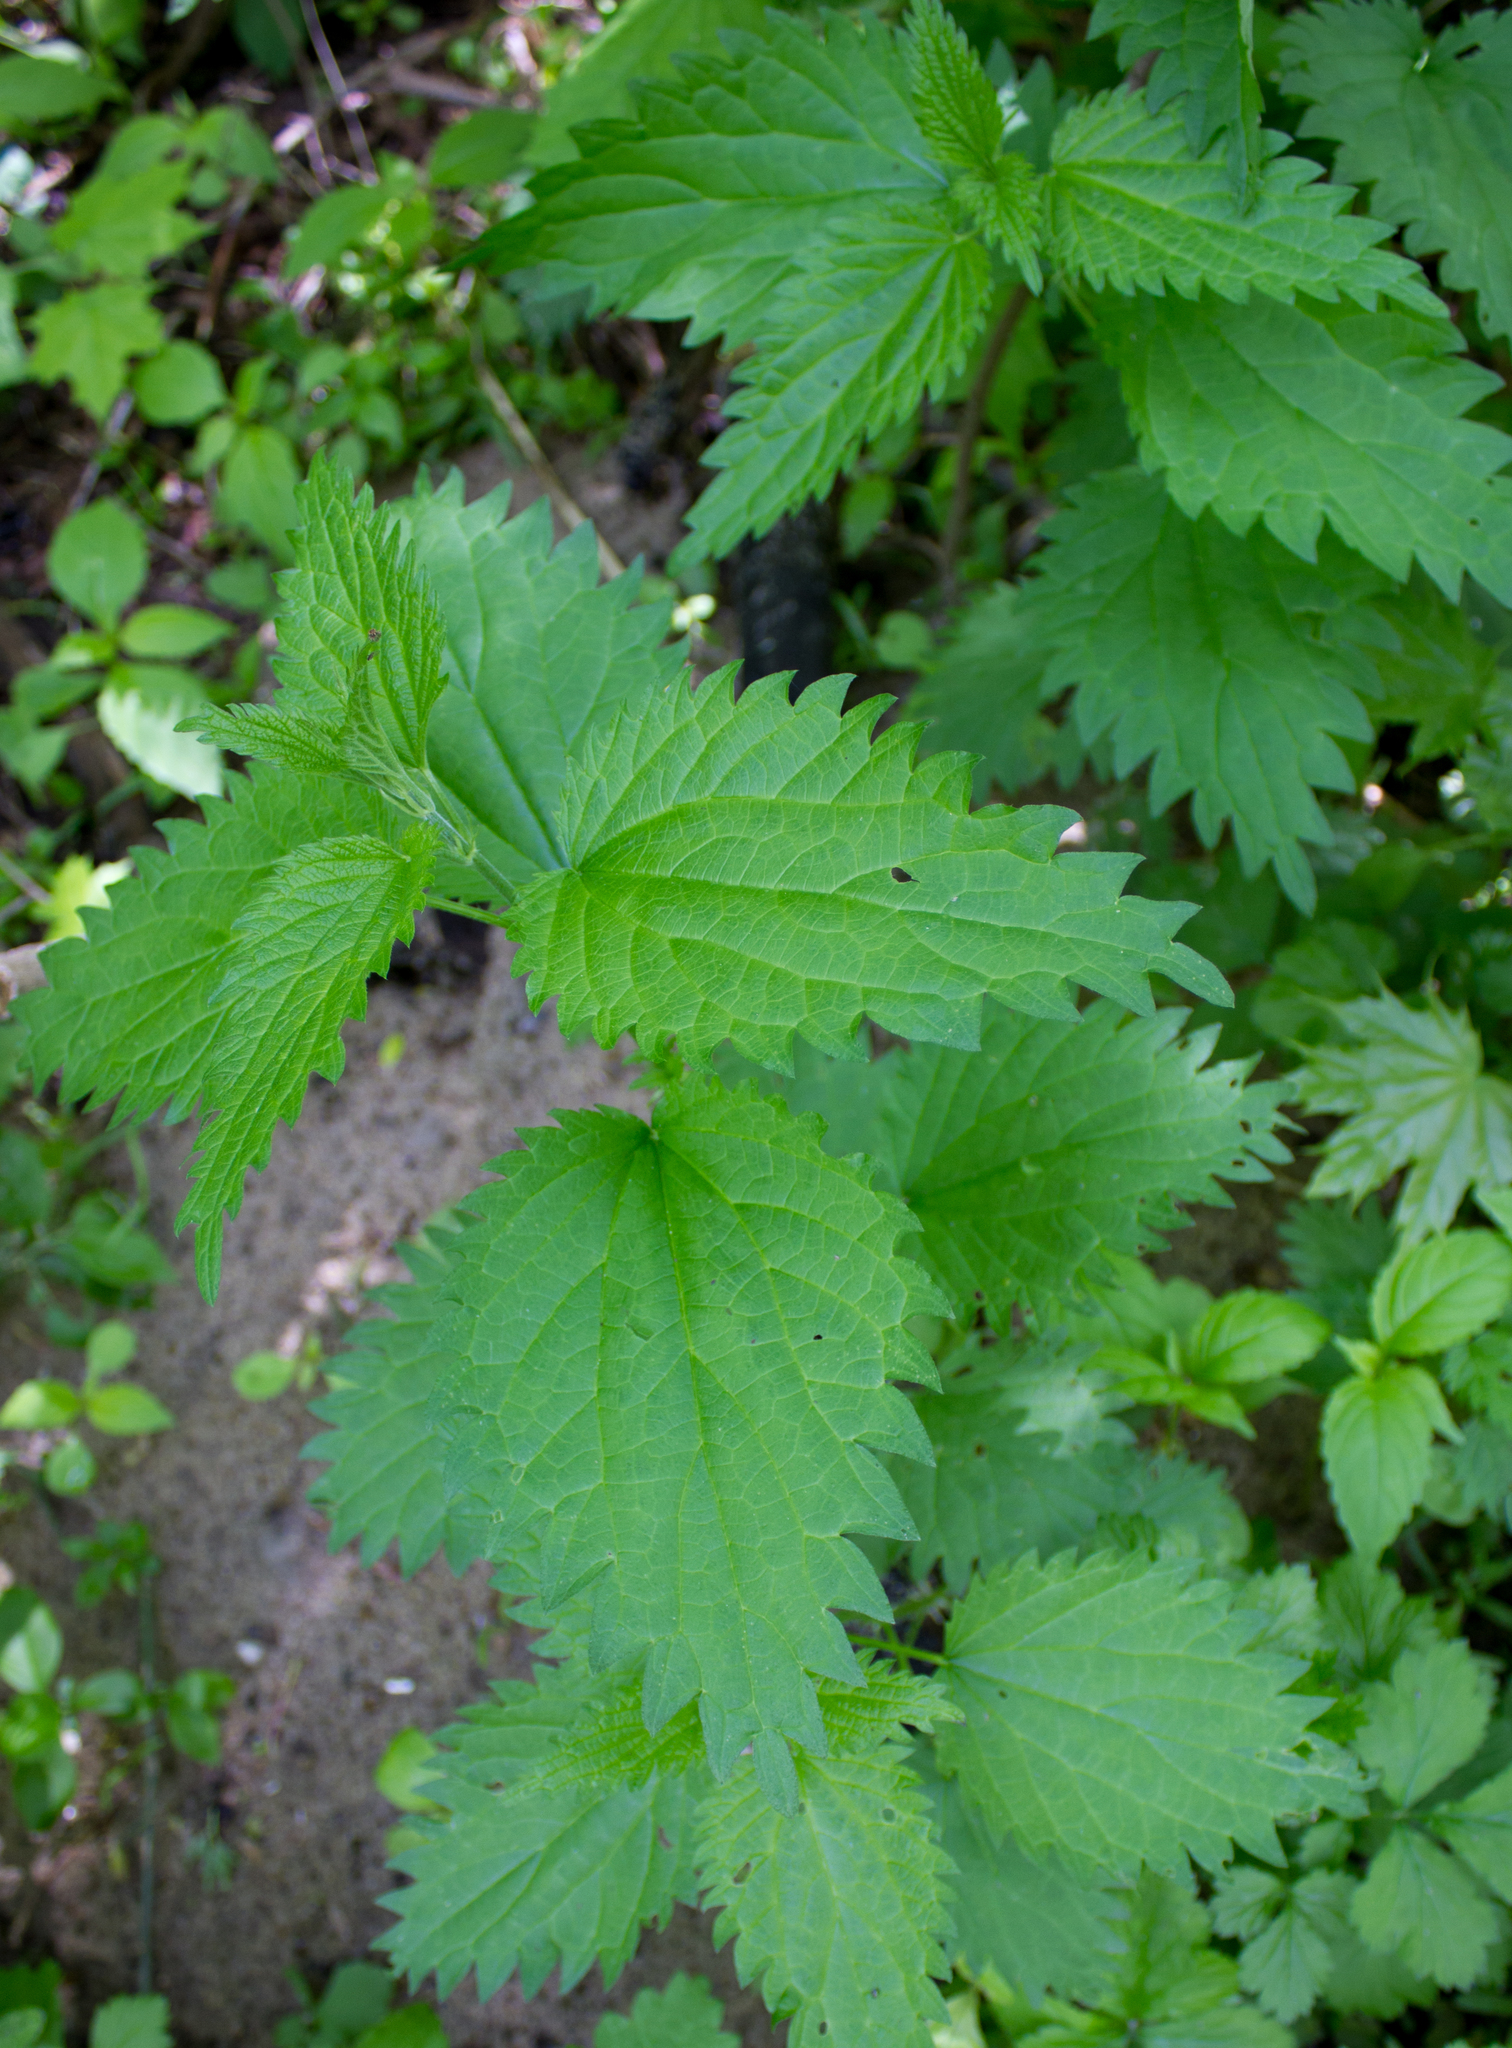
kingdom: Plantae
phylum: Tracheophyta
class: Magnoliopsida
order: Rosales
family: Urticaceae
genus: Urtica
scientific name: Urtica dioica
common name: Common nettle
